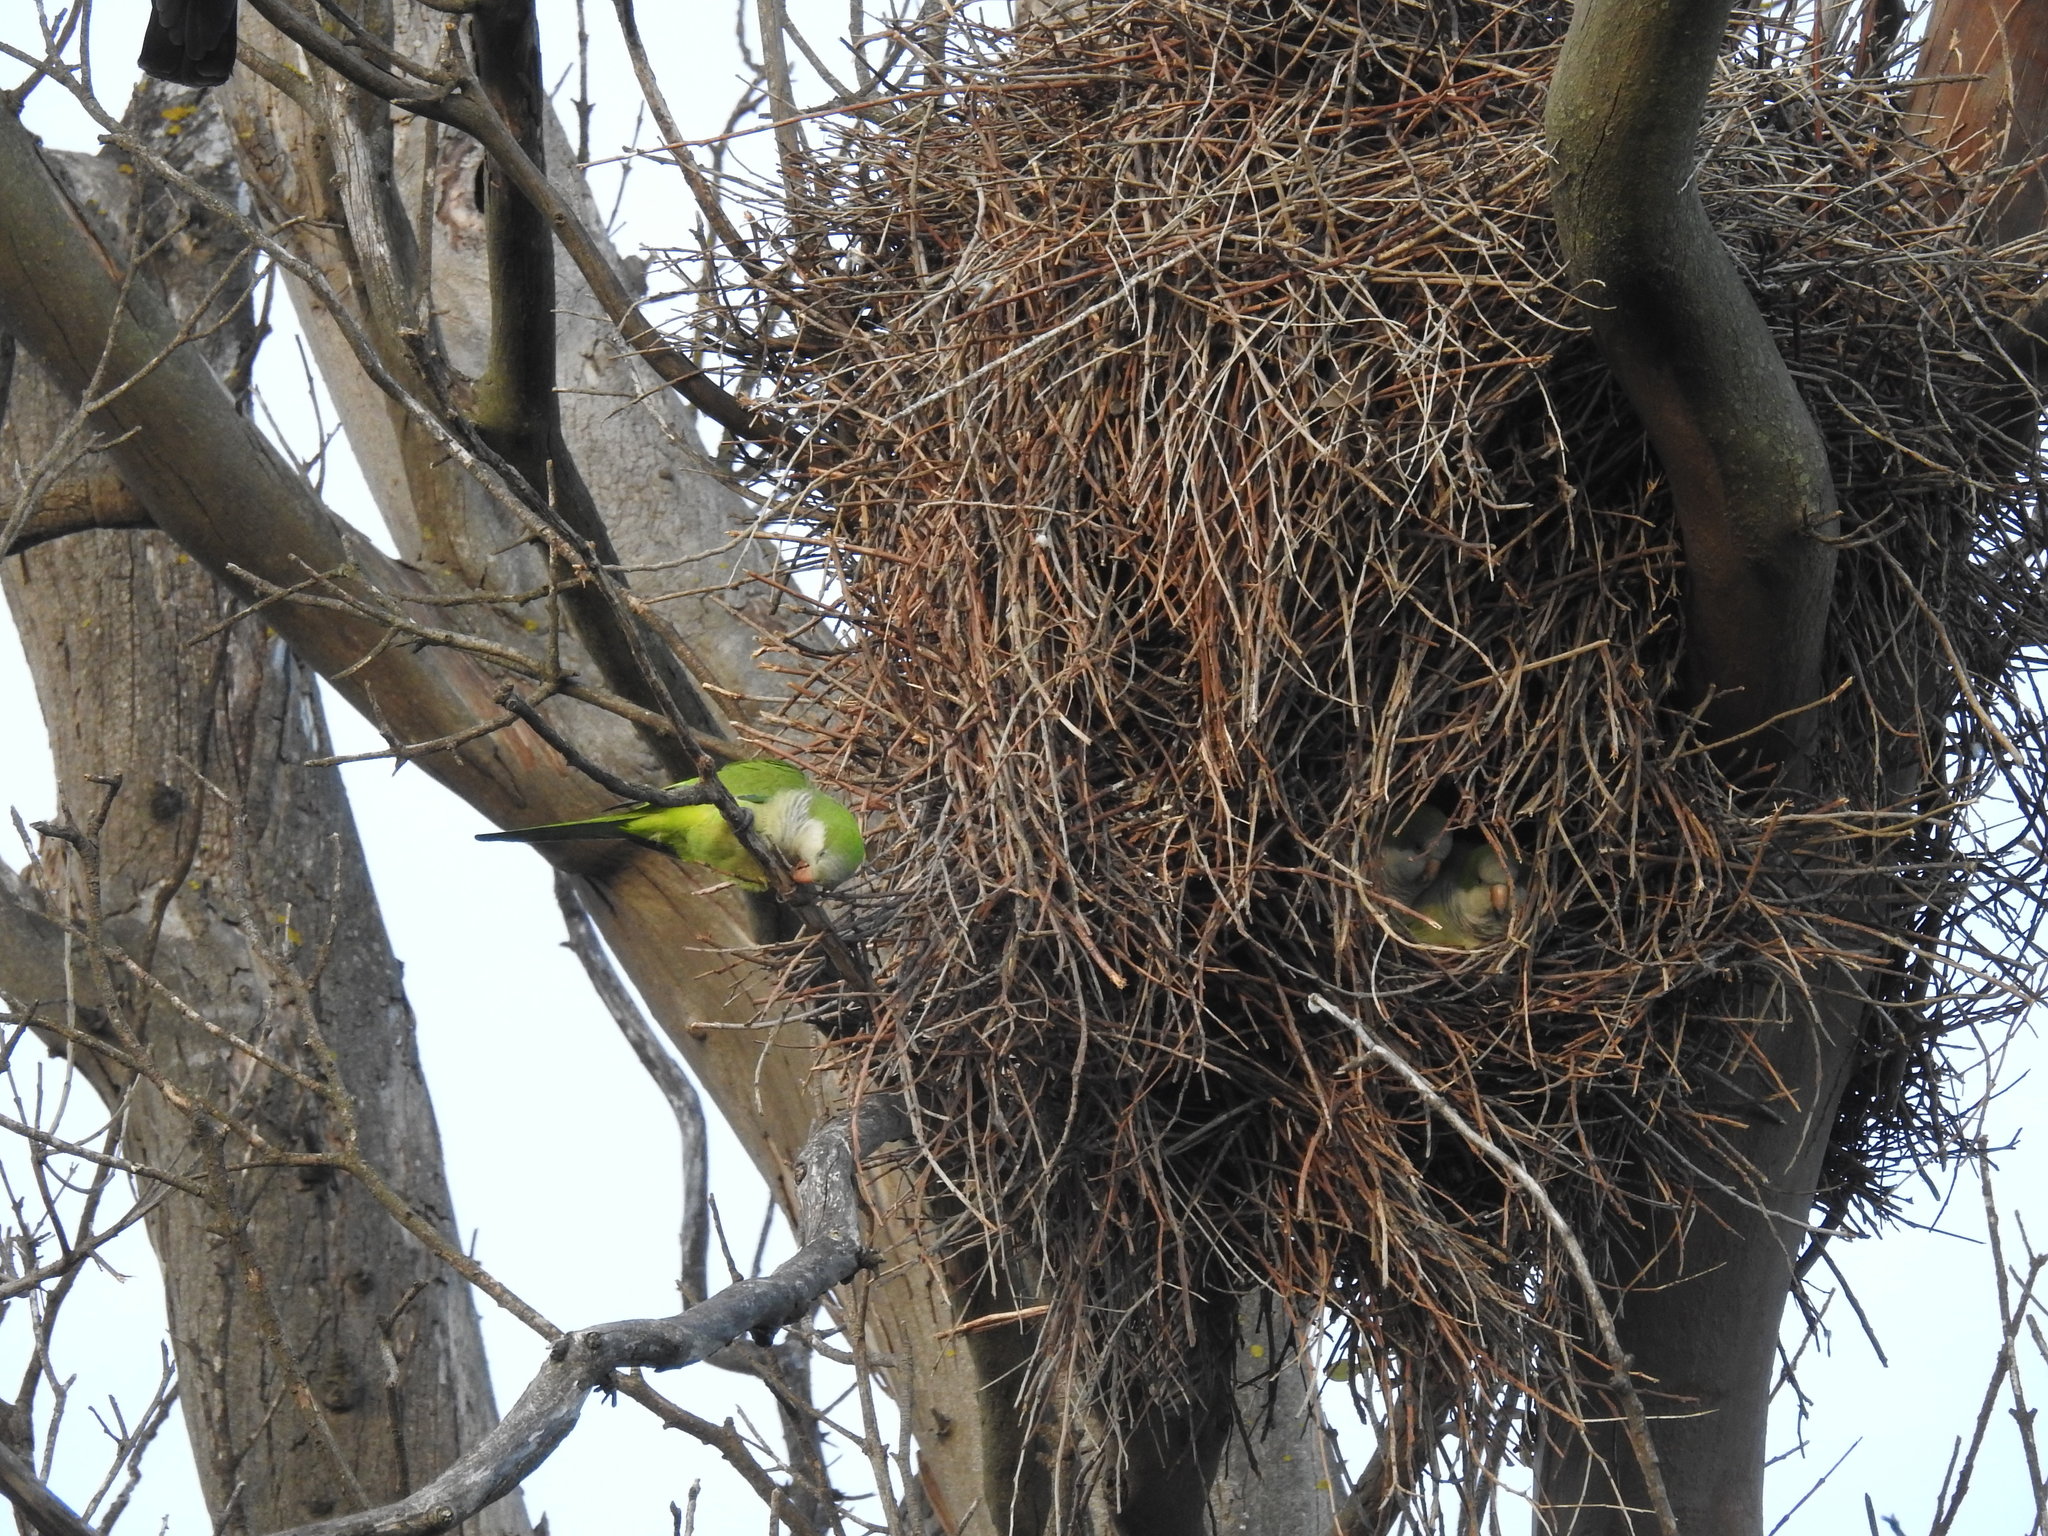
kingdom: Animalia
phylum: Chordata
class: Aves
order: Psittaciformes
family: Psittacidae
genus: Myiopsitta
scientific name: Myiopsitta monachus
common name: Monk parakeet
